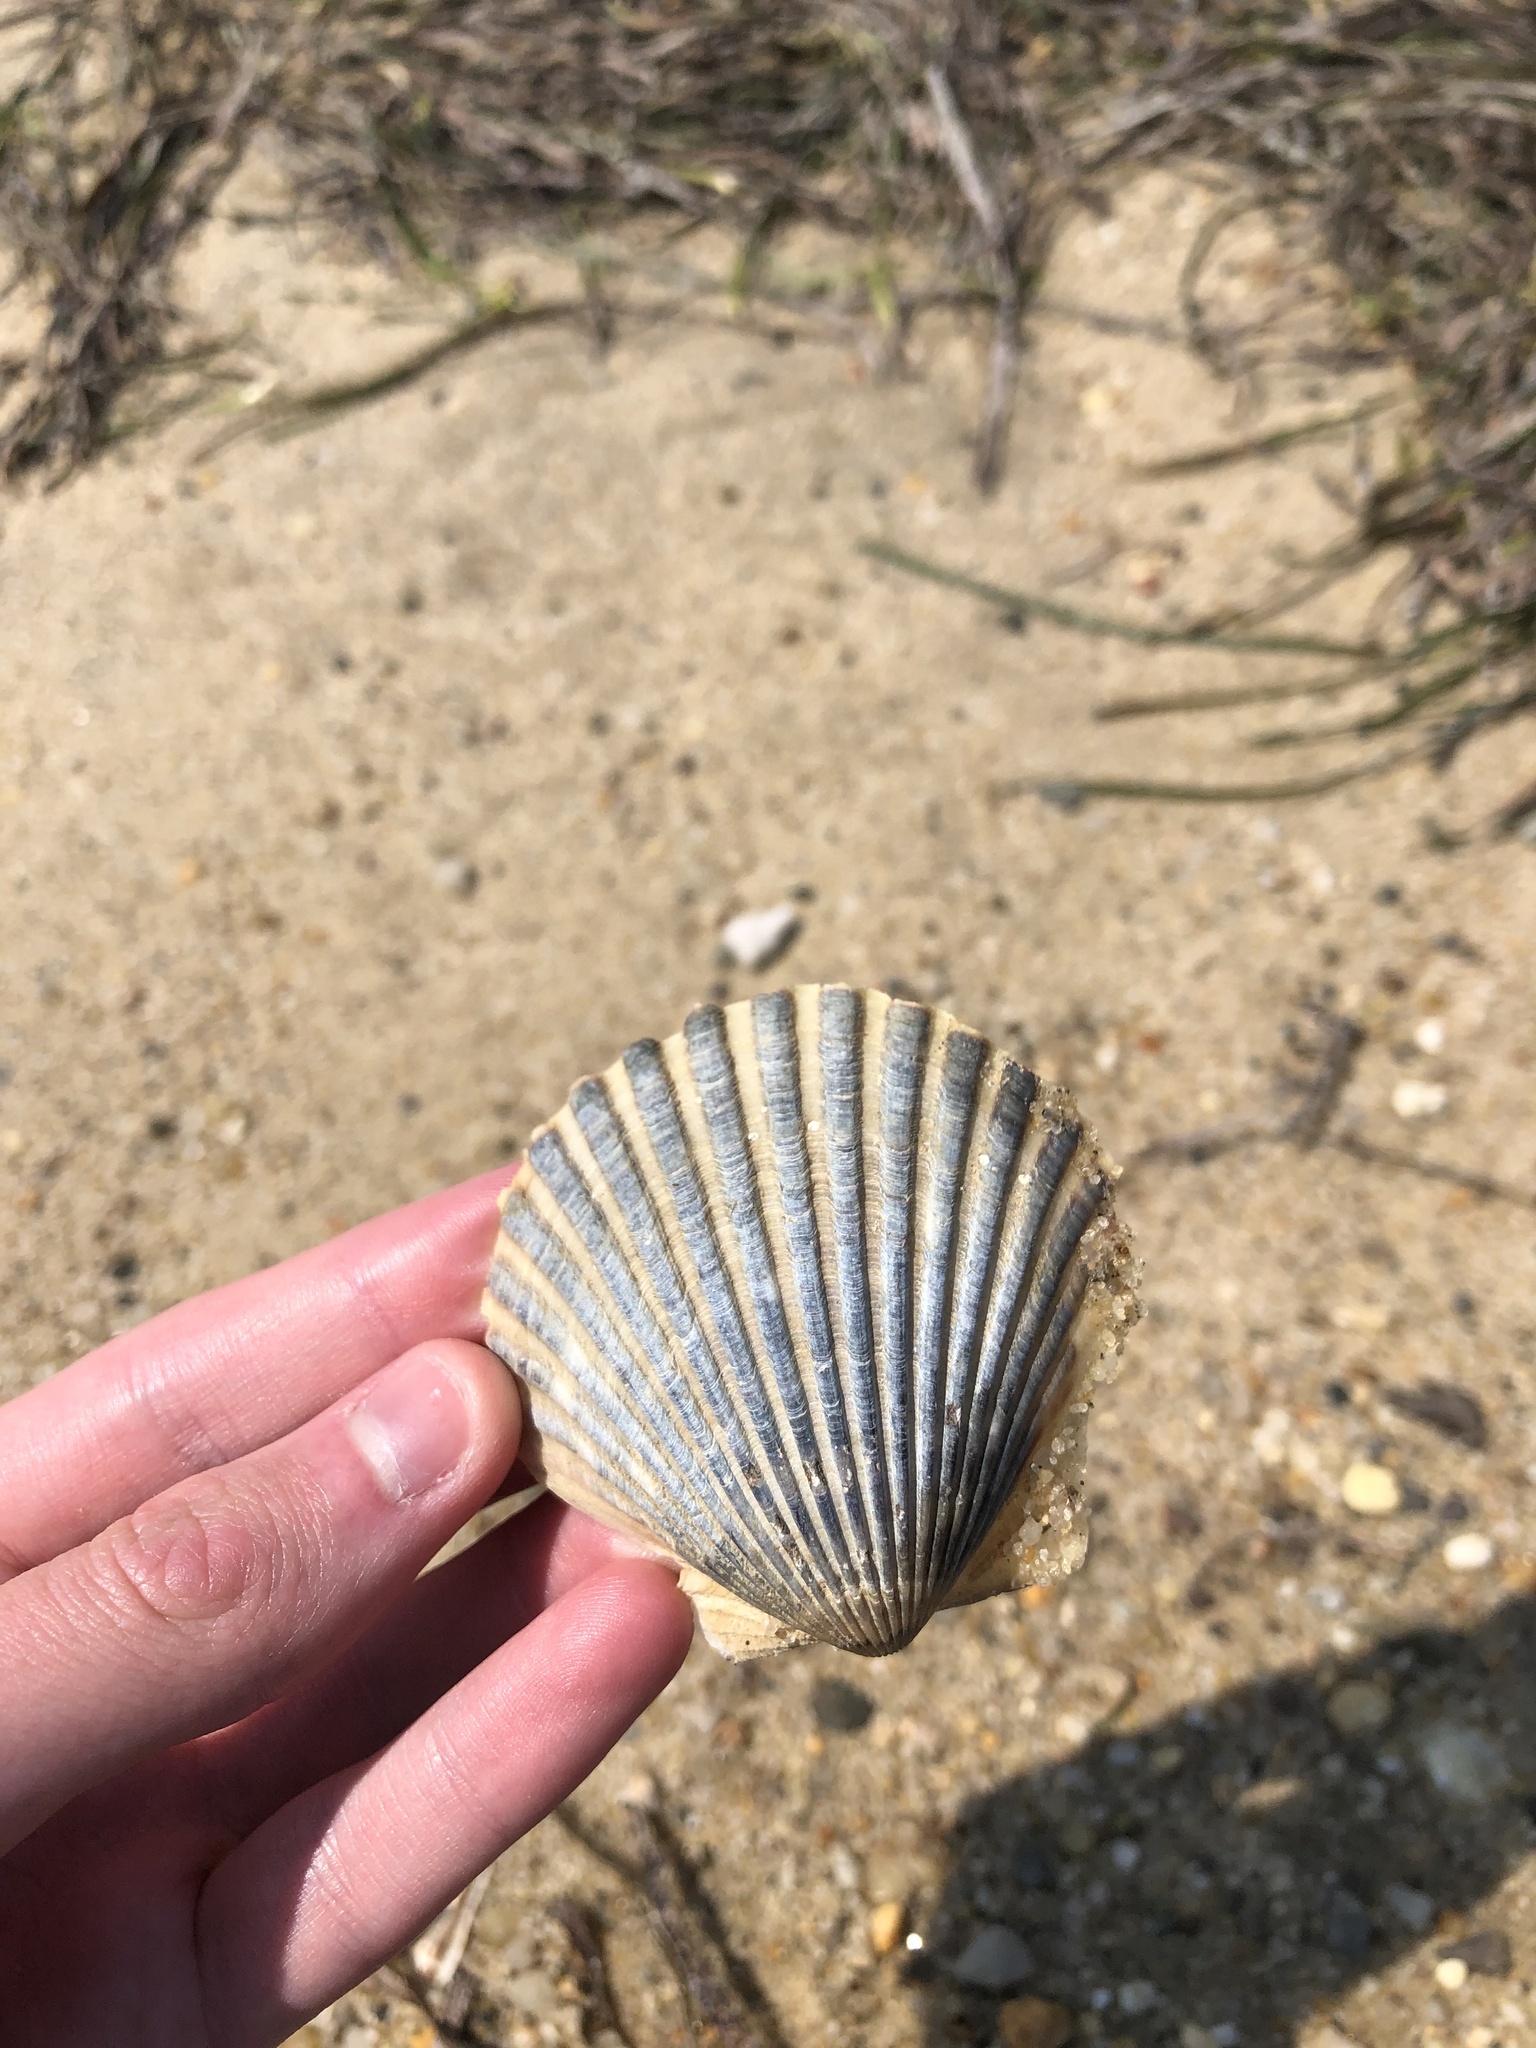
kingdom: Animalia
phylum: Mollusca
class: Bivalvia
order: Pectinida
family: Pectinidae
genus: Argopecten
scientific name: Argopecten irradians
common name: Atlantic bay scallop
